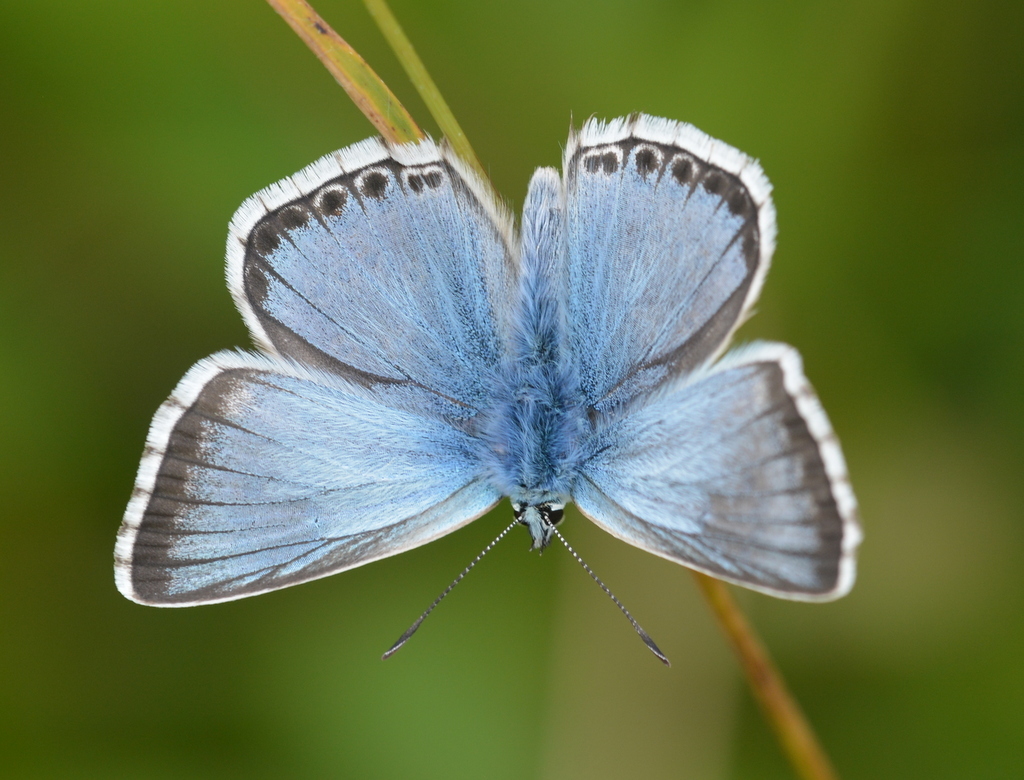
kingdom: Animalia
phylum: Arthropoda
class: Insecta
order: Lepidoptera
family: Lycaenidae
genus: Lysandra
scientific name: Lysandra coridon
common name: Chalkhill blue
